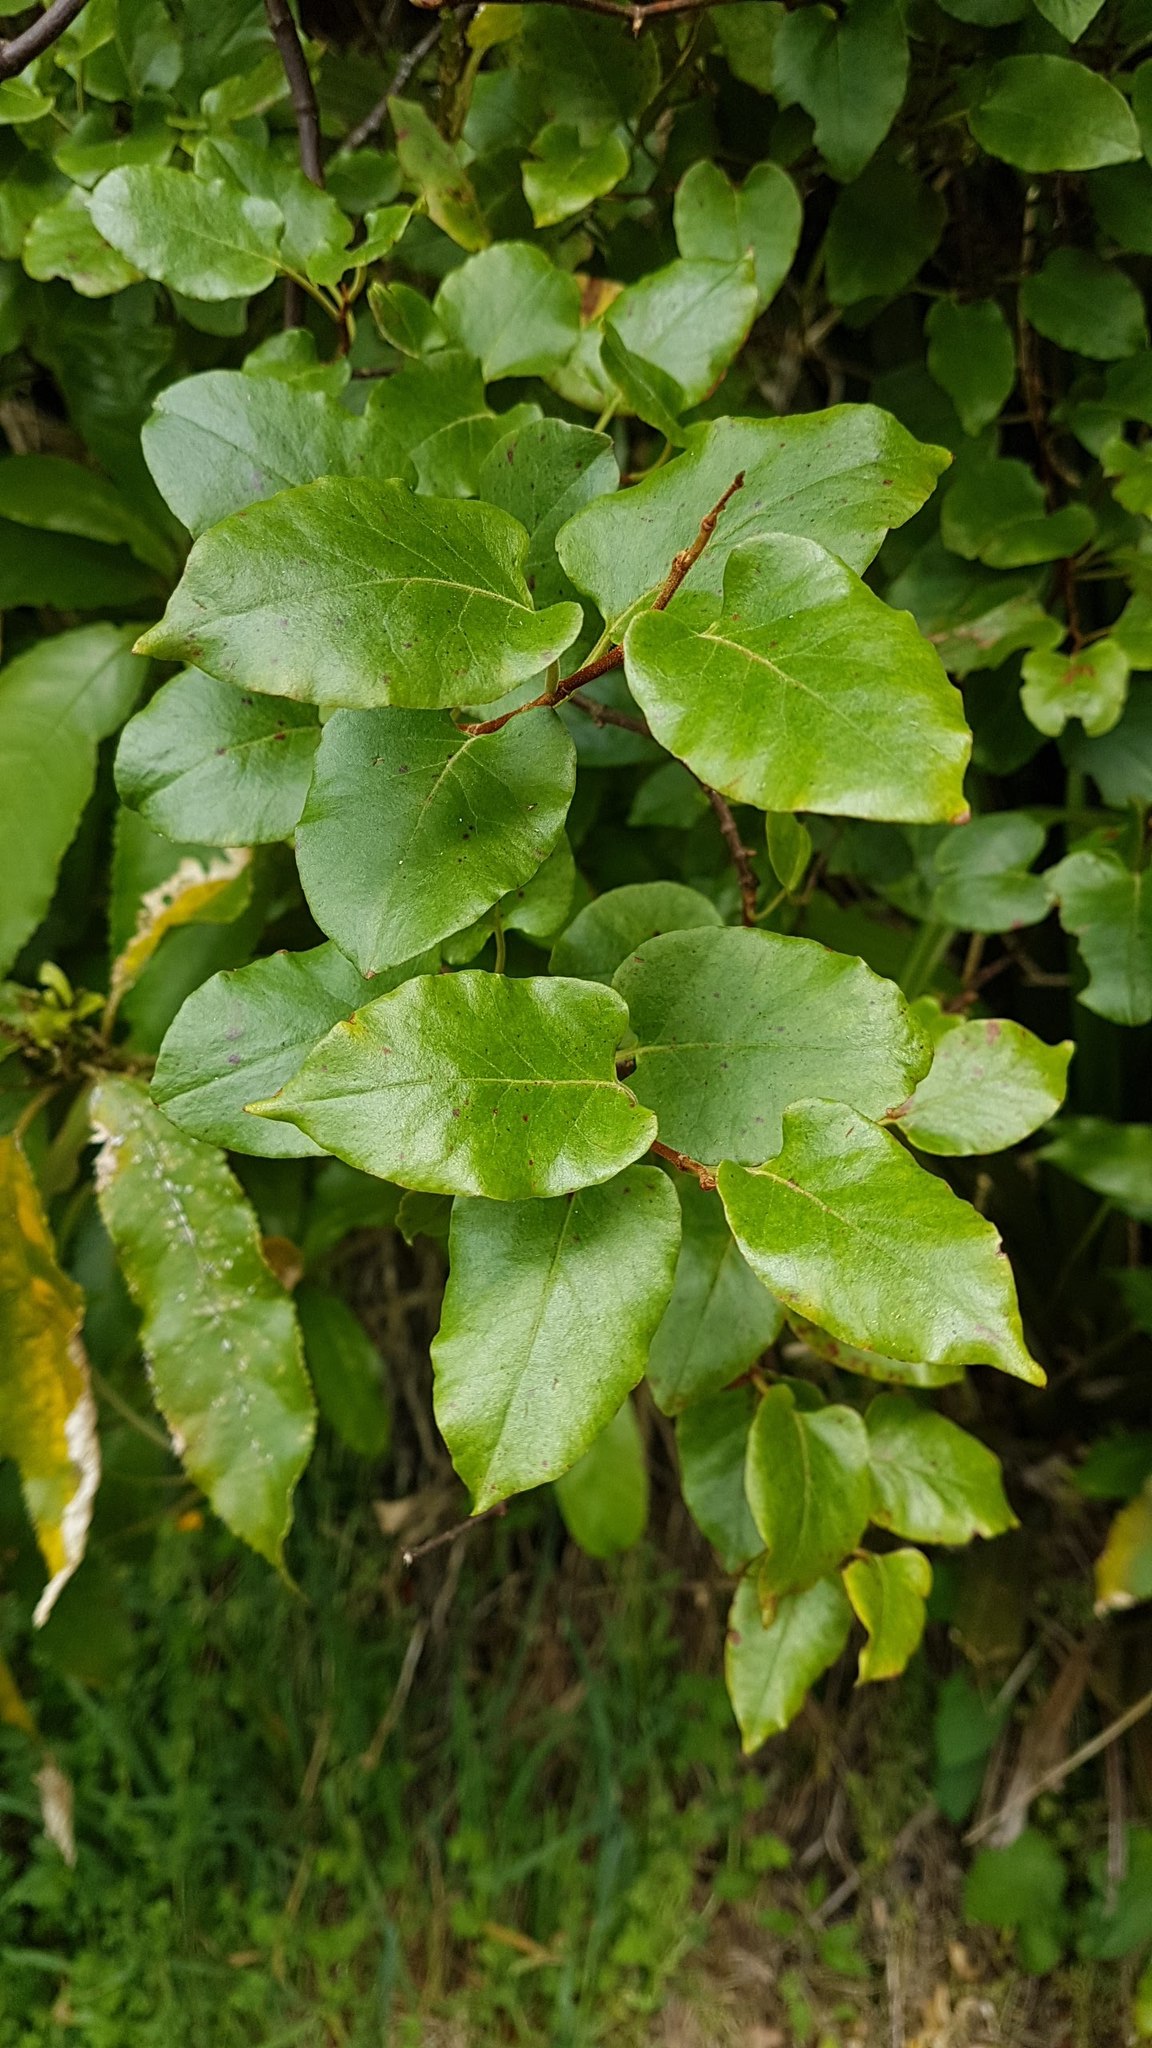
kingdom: Plantae
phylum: Tracheophyta
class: Magnoliopsida
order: Caryophyllales
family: Polygonaceae
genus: Muehlenbeckia
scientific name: Muehlenbeckia australis
